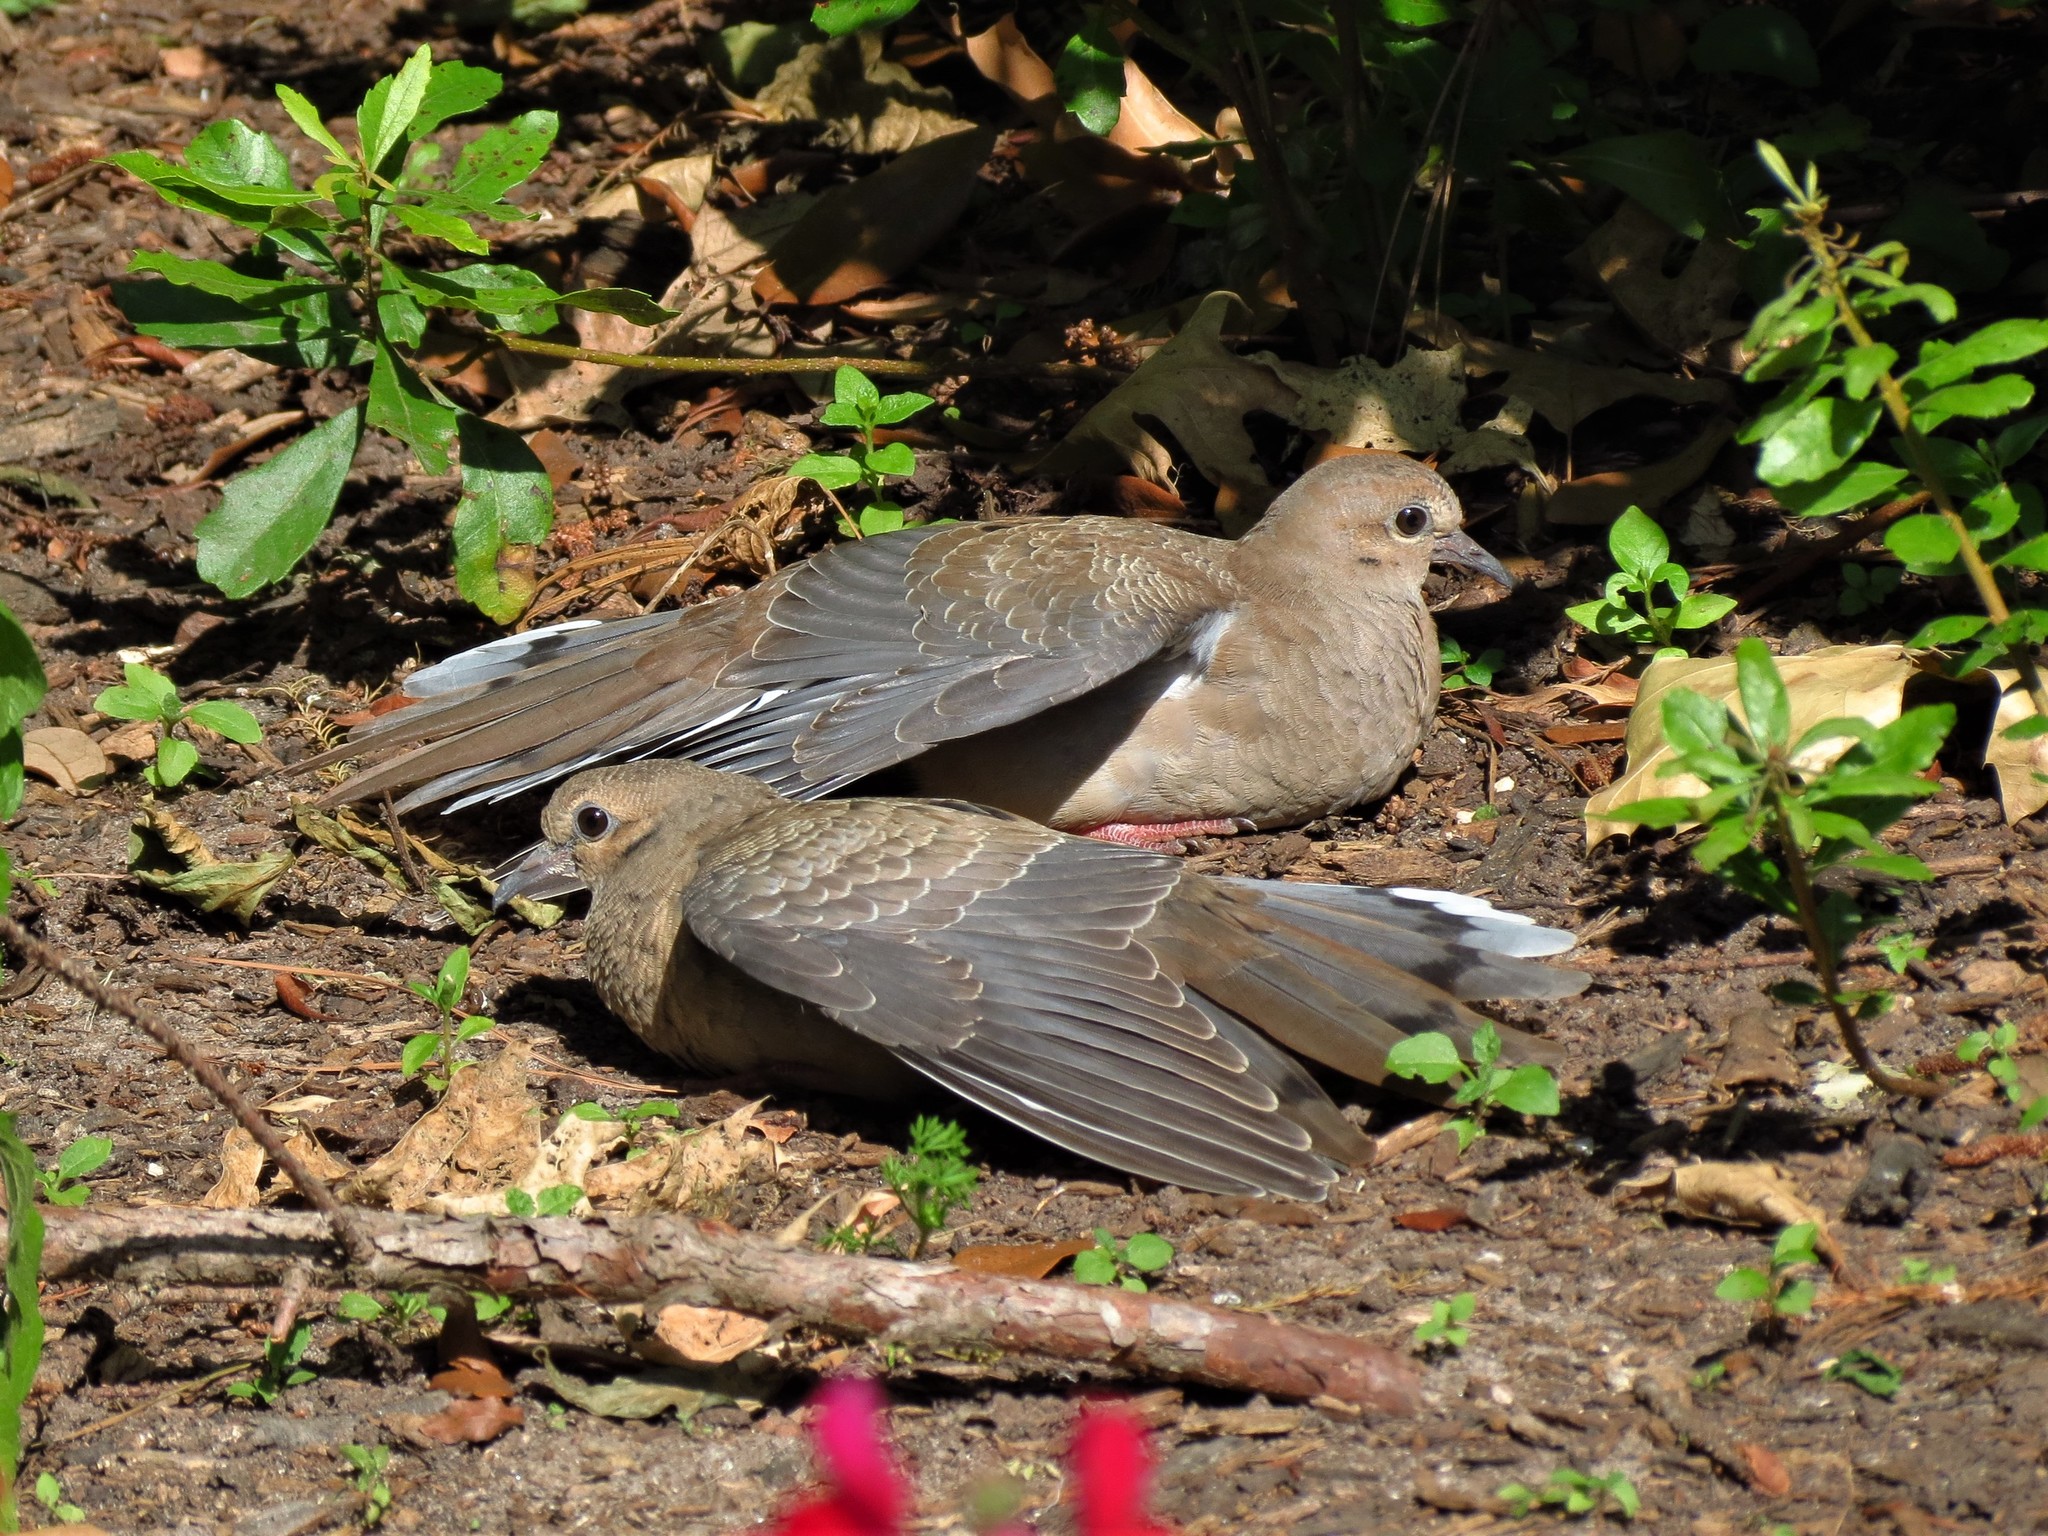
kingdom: Animalia
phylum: Chordata
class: Aves
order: Columbiformes
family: Columbidae
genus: Zenaida
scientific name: Zenaida macroura
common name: Mourning dove
